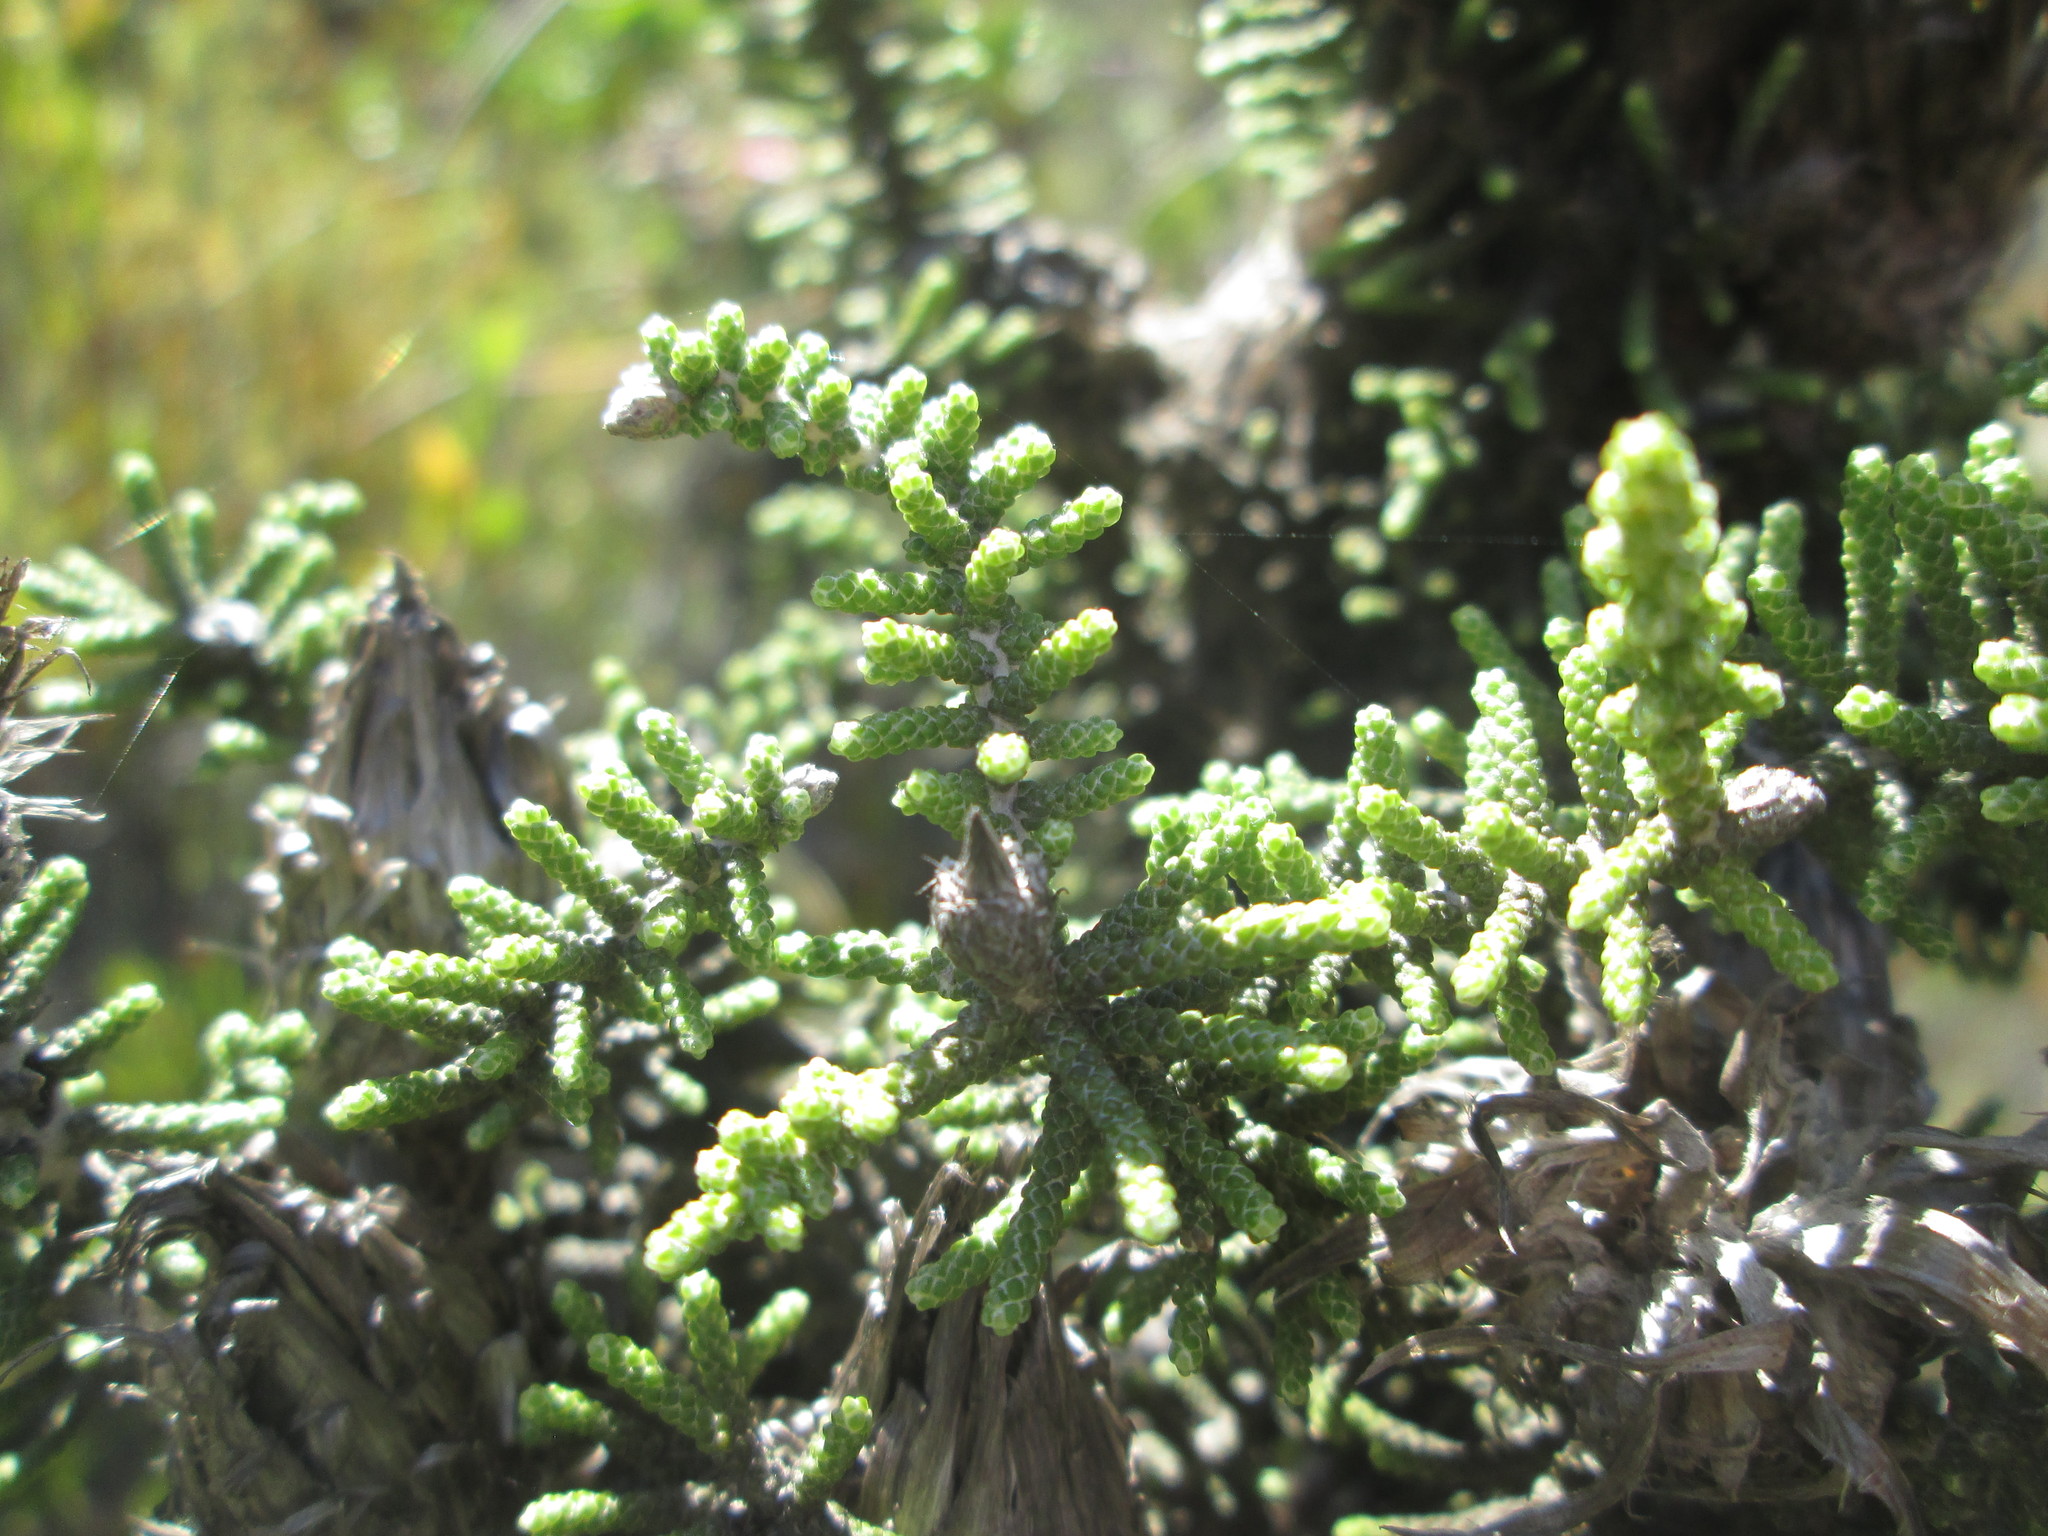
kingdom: Plantae
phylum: Tracheophyta
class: Magnoliopsida
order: Asterales
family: Asteraceae
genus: Phaenocoma
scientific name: Phaenocoma prolifera
